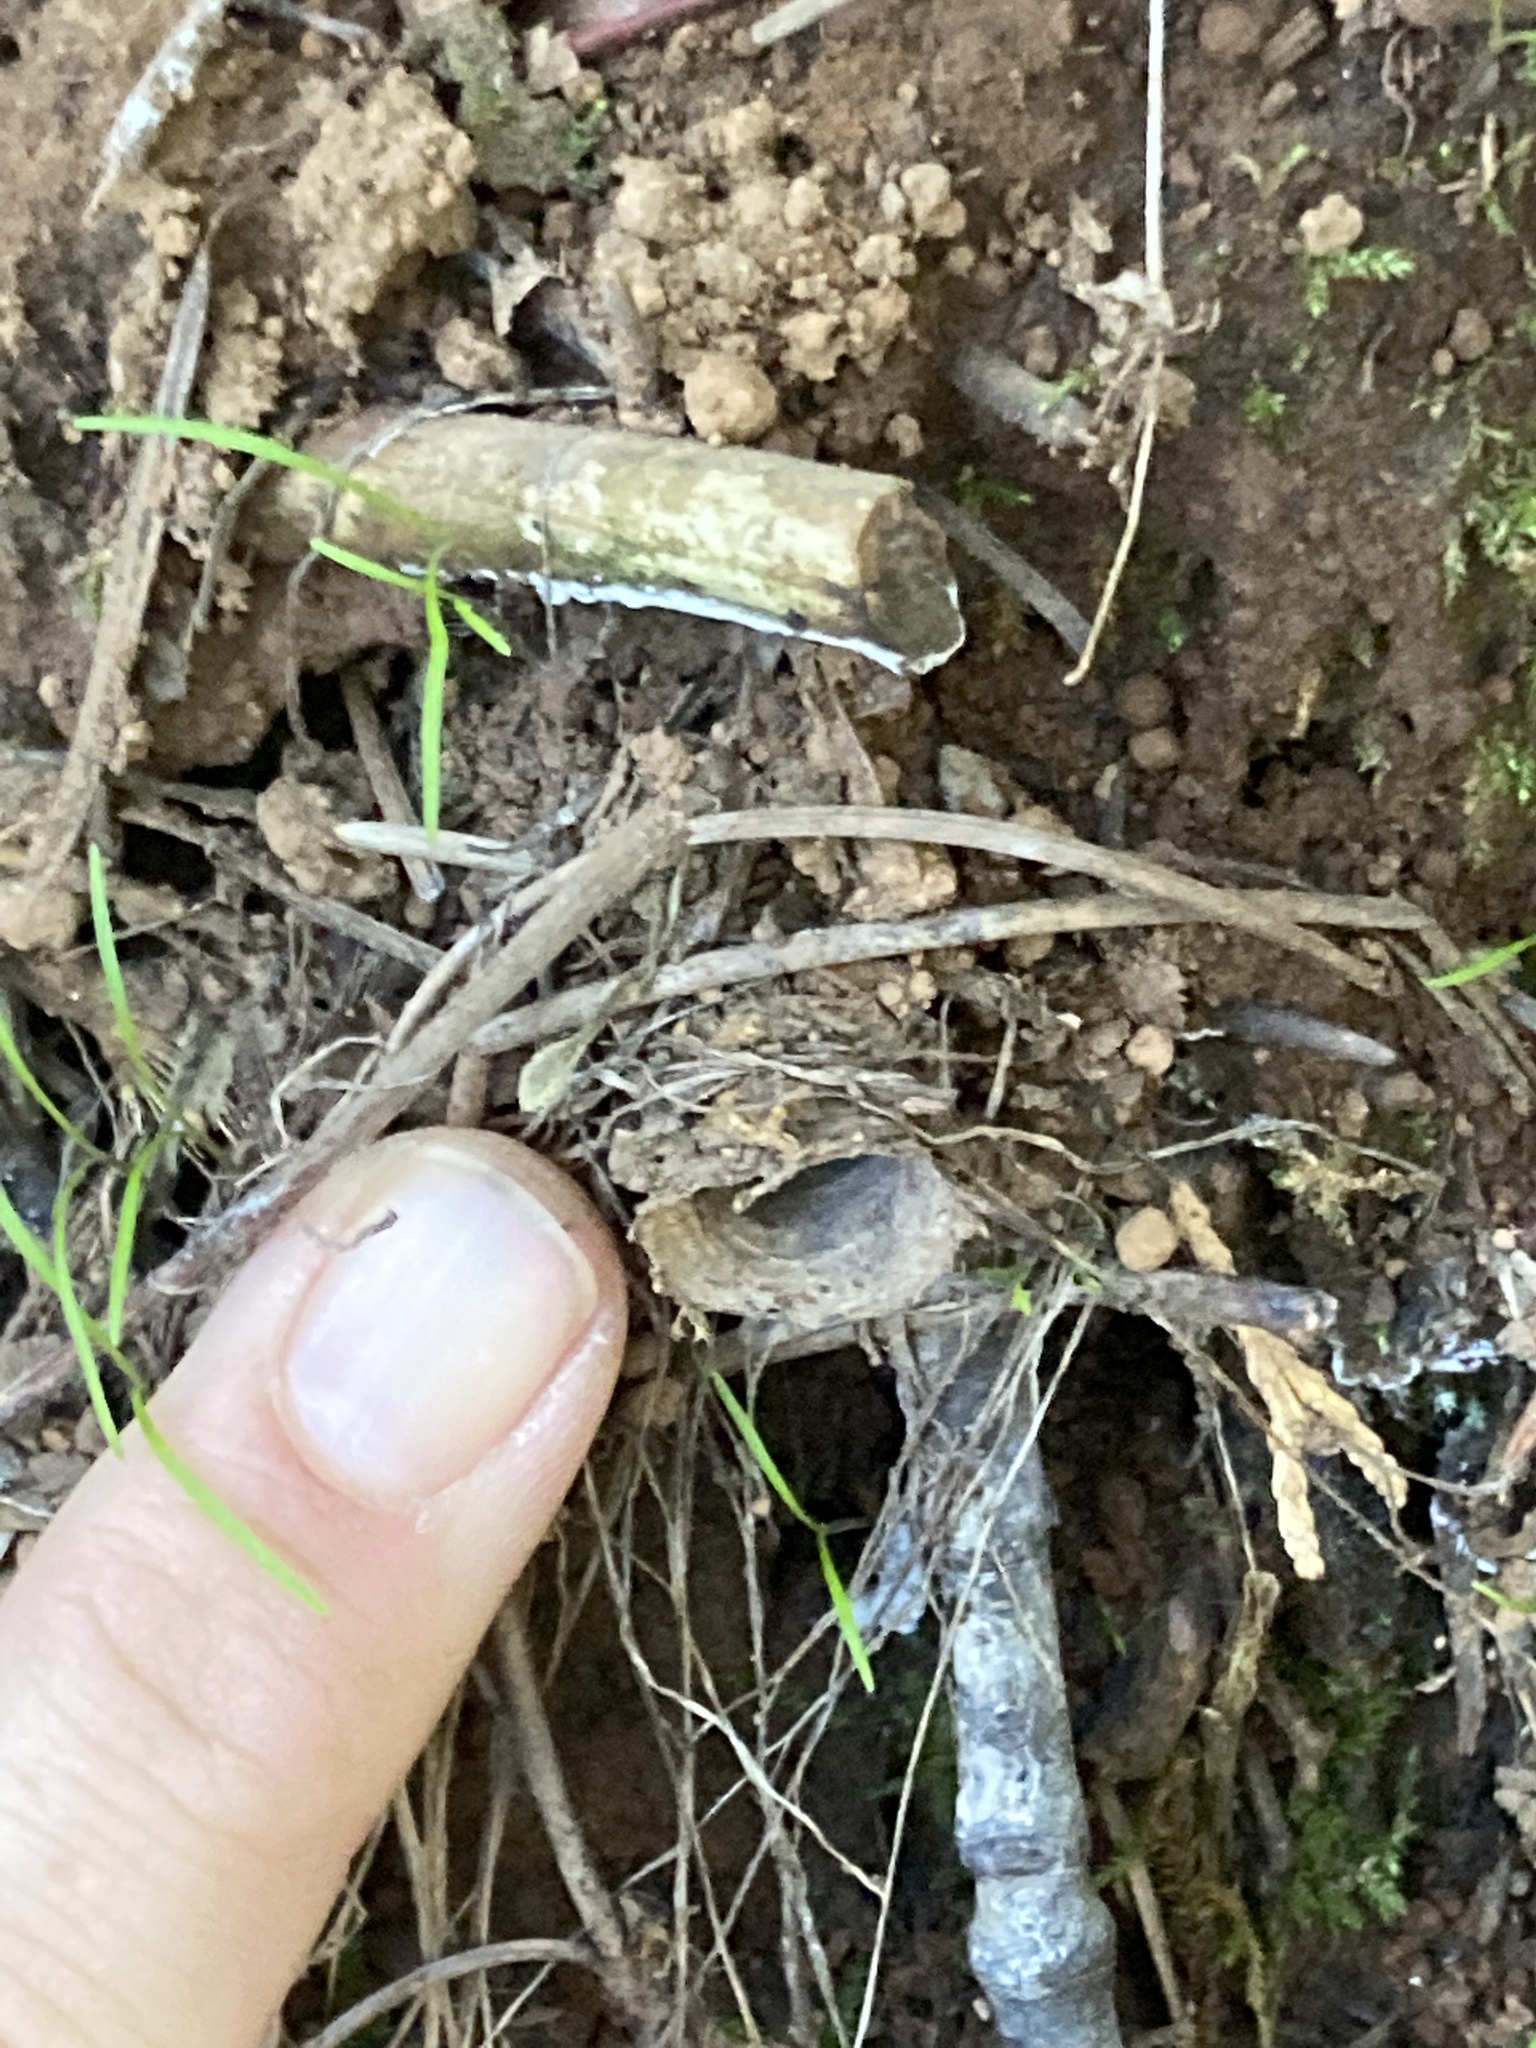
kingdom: Animalia
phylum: Arthropoda
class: Arachnida
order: Araneae
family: Antrodiaetidae
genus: Atypoides
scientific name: Atypoides riversi
